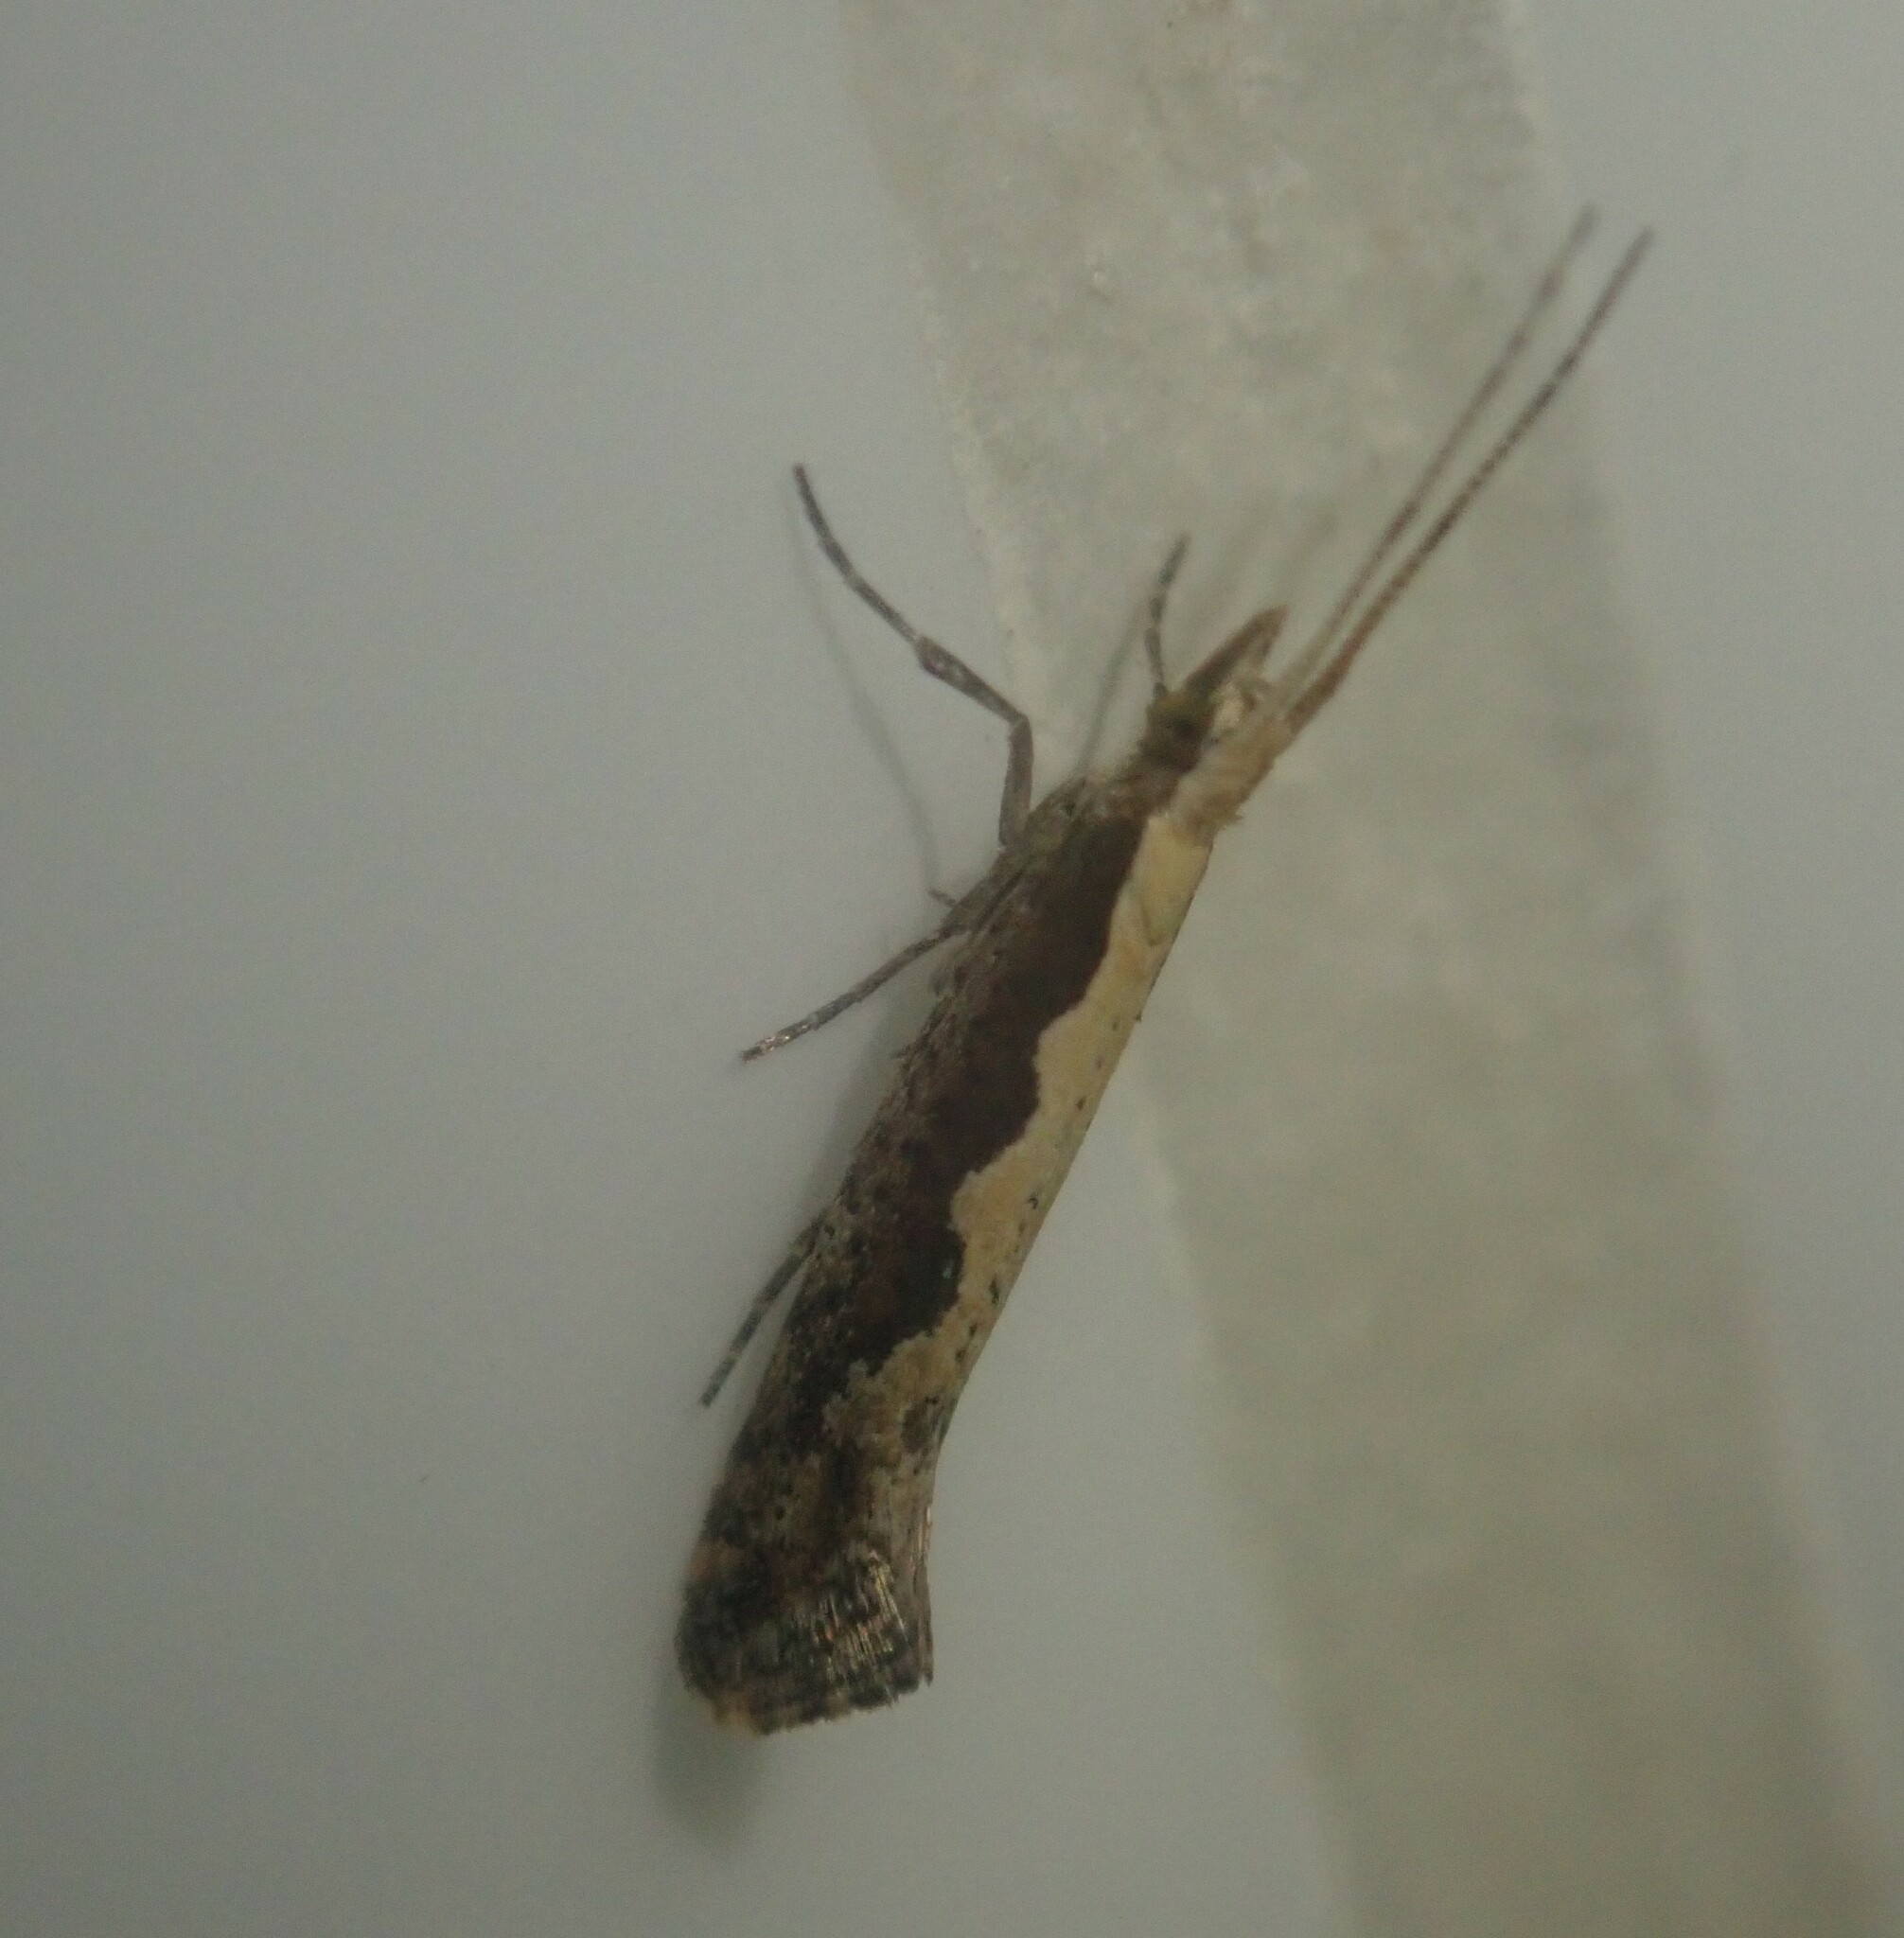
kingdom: Animalia
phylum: Arthropoda
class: Insecta
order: Lepidoptera
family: Plutellidae
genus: Plutella
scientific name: Plutella xylostella
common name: Diamond-back moth
